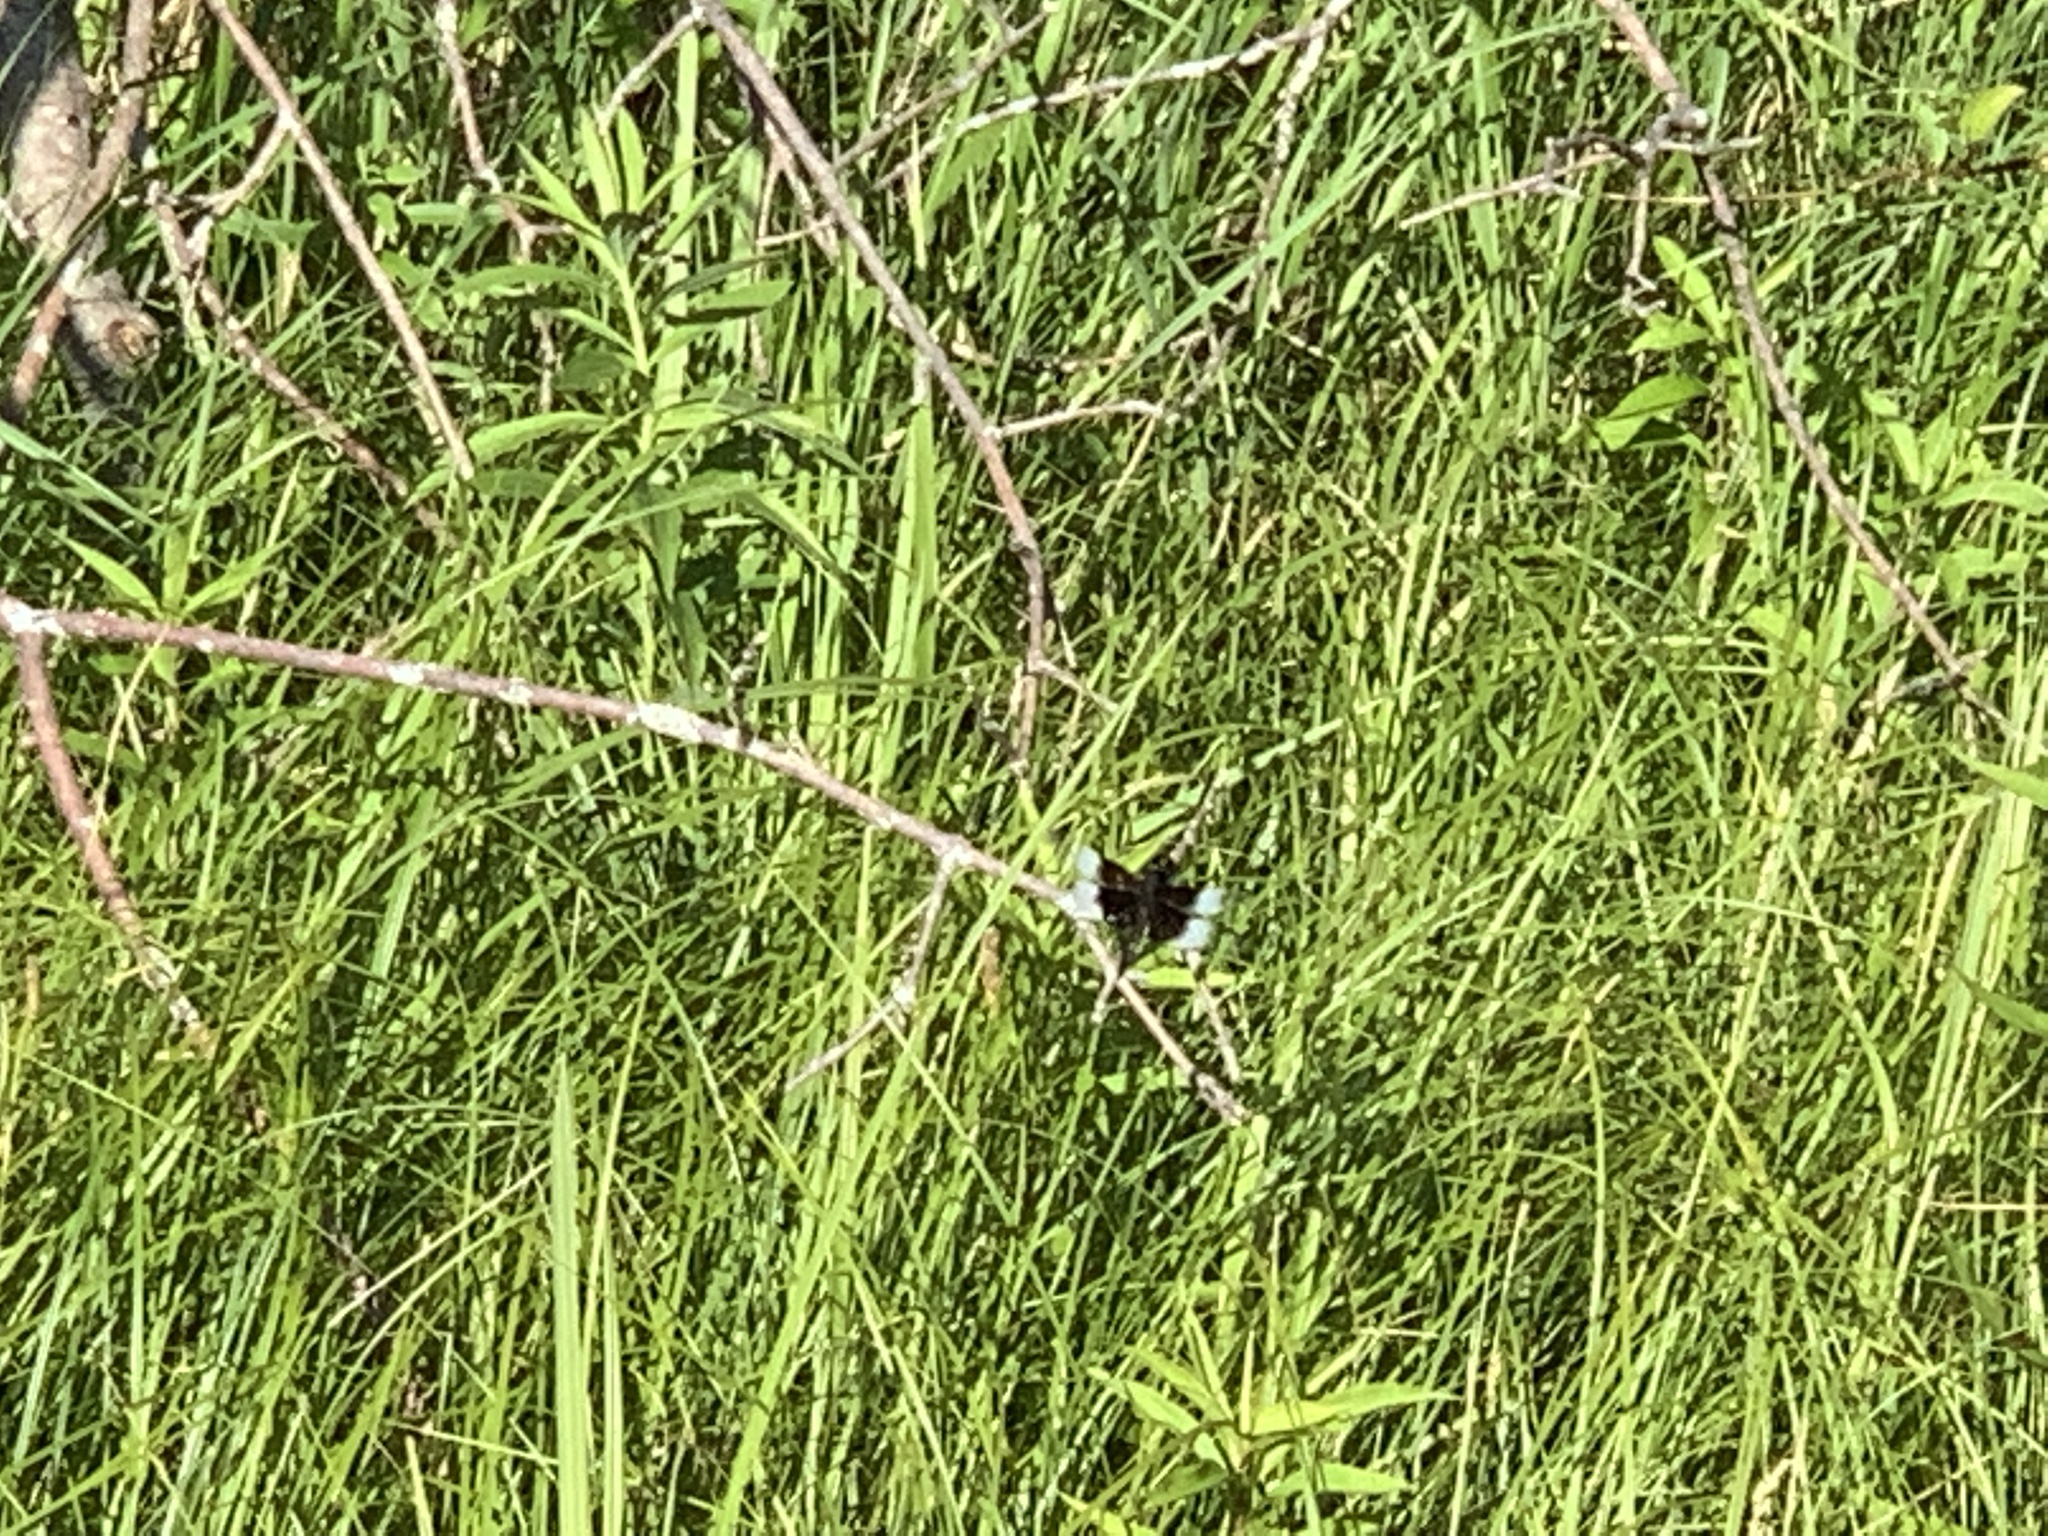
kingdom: Animalia
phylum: Arthropoda
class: Insecta
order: Odonata
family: Libellulidae
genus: Libellula
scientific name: Libellula luctuosa
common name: Widow skimmer
